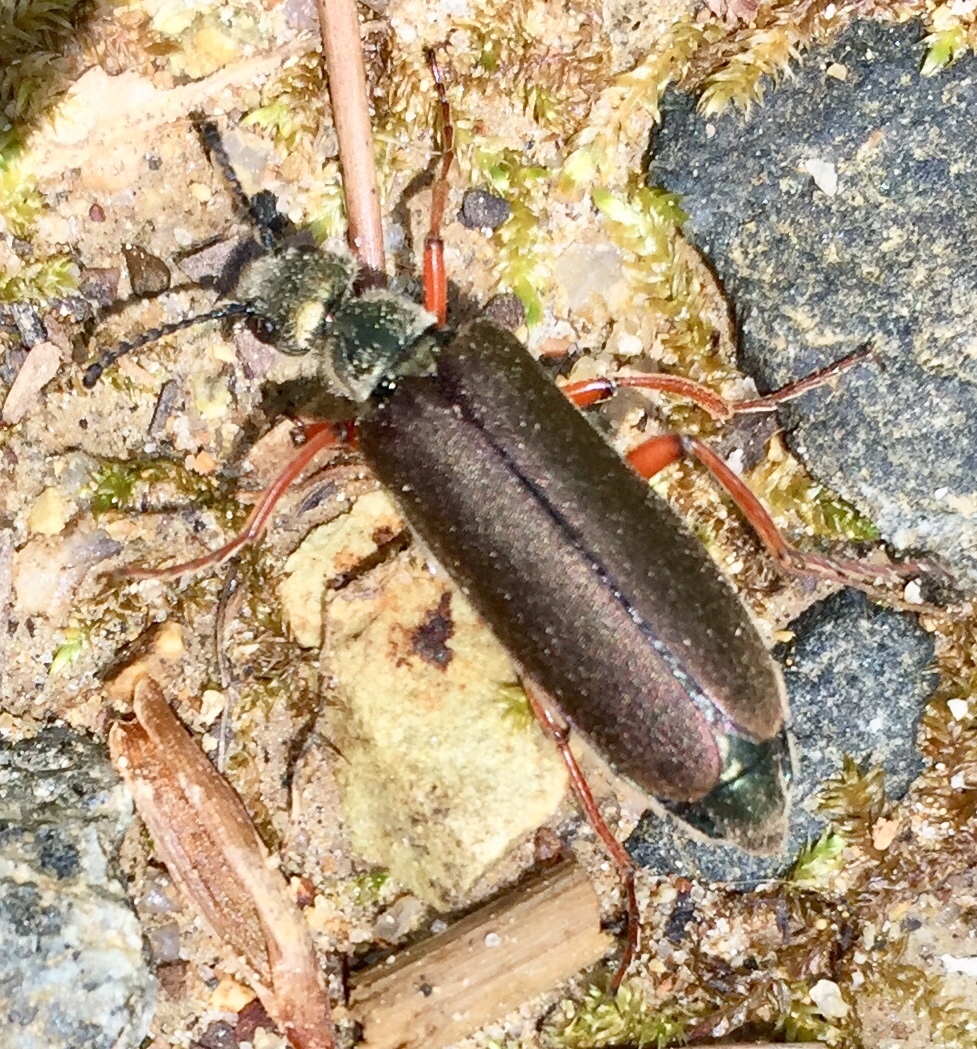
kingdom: Animalia
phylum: Arthropoda
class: Insecta
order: Coleoptera
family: Meloidae
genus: Lytta
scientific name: Lytta aenea
